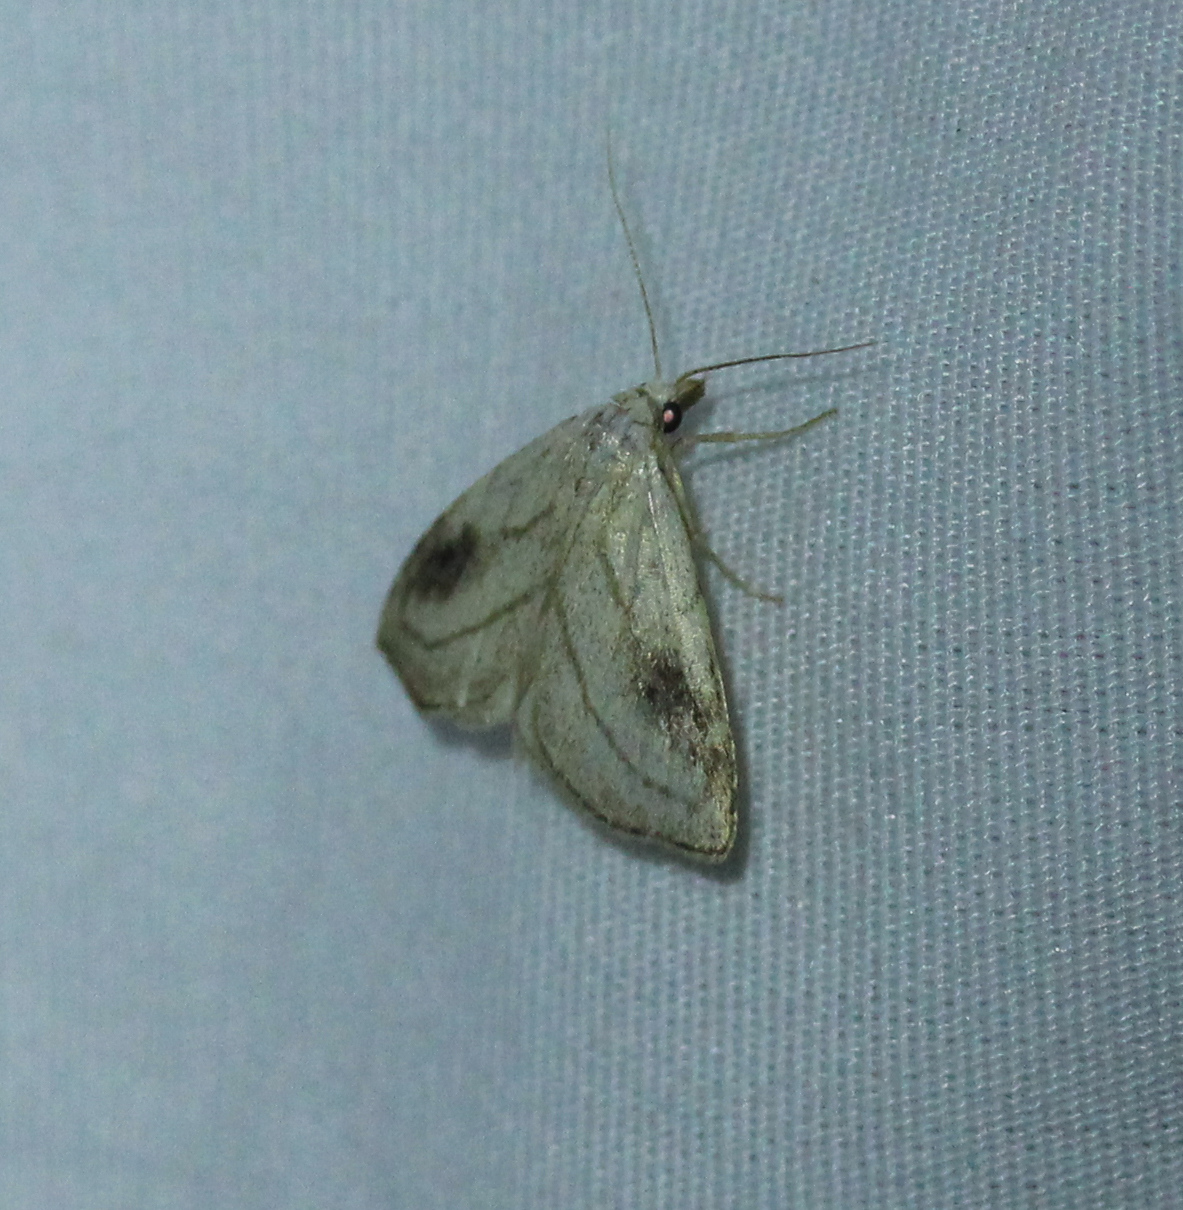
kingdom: Animalia
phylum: Arthropoda
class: Insecta
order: Lepidoptera
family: Erebidae
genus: Rivula
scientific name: Rivula propinqualis
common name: Spotted grass moth
